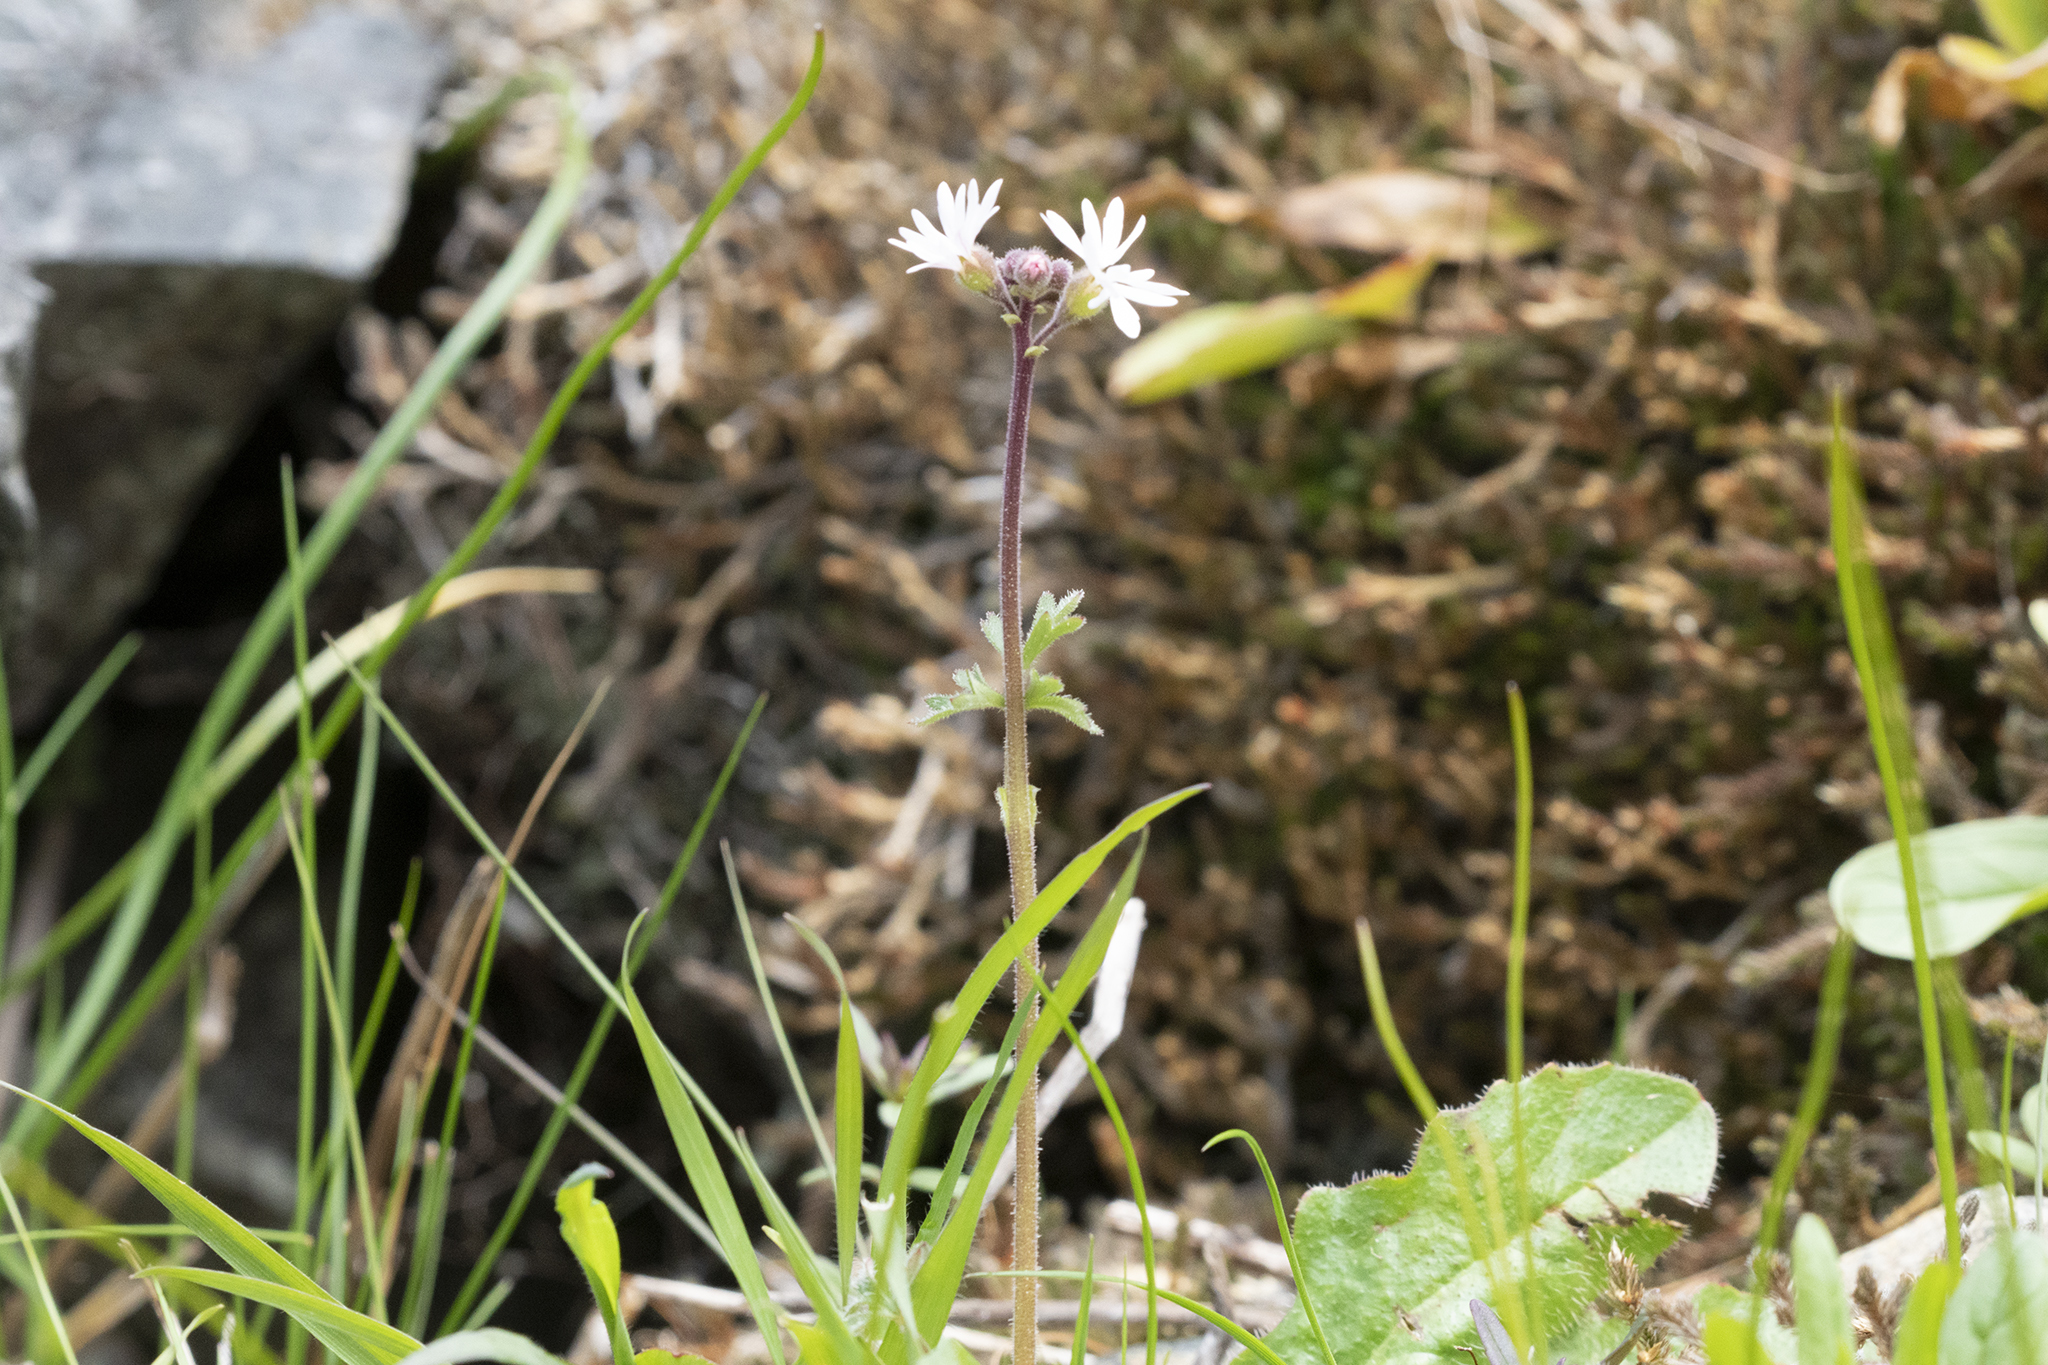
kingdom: Plantae
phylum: Tracheophyta
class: Magnoliopsida
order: Saxifragales
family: Saxifragaceae
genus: Lithophragma
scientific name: Lithophragma parviflorum
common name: Small-flowered fringe-cup
